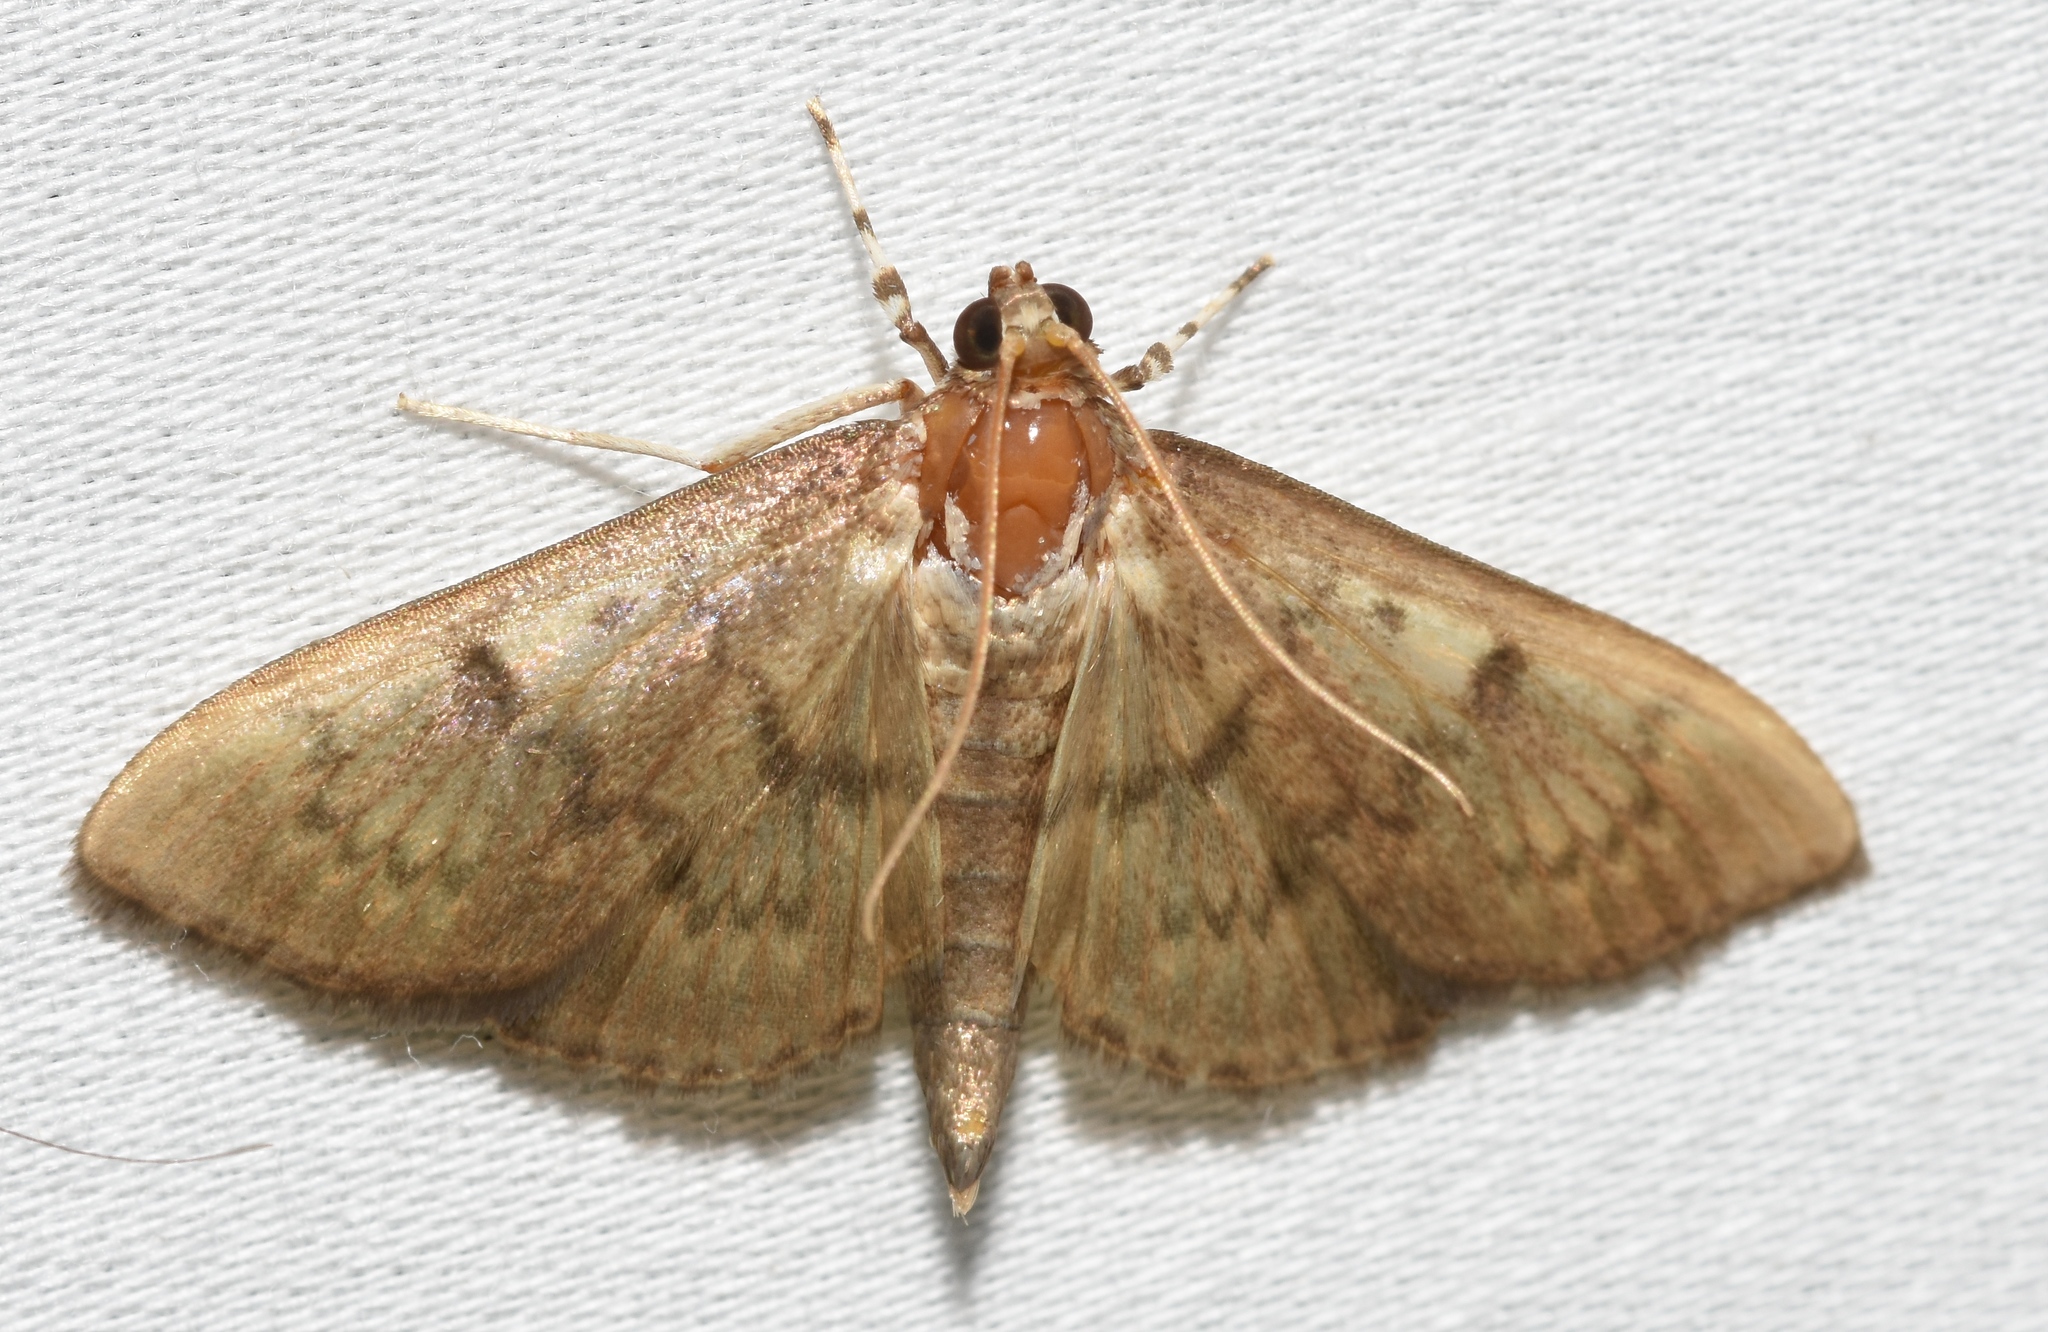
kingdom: Animalia
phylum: Arthropoda
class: Insecta
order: Lepidoptera
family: Crambidae
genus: Syllepte
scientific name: Syllepte obscuralis
